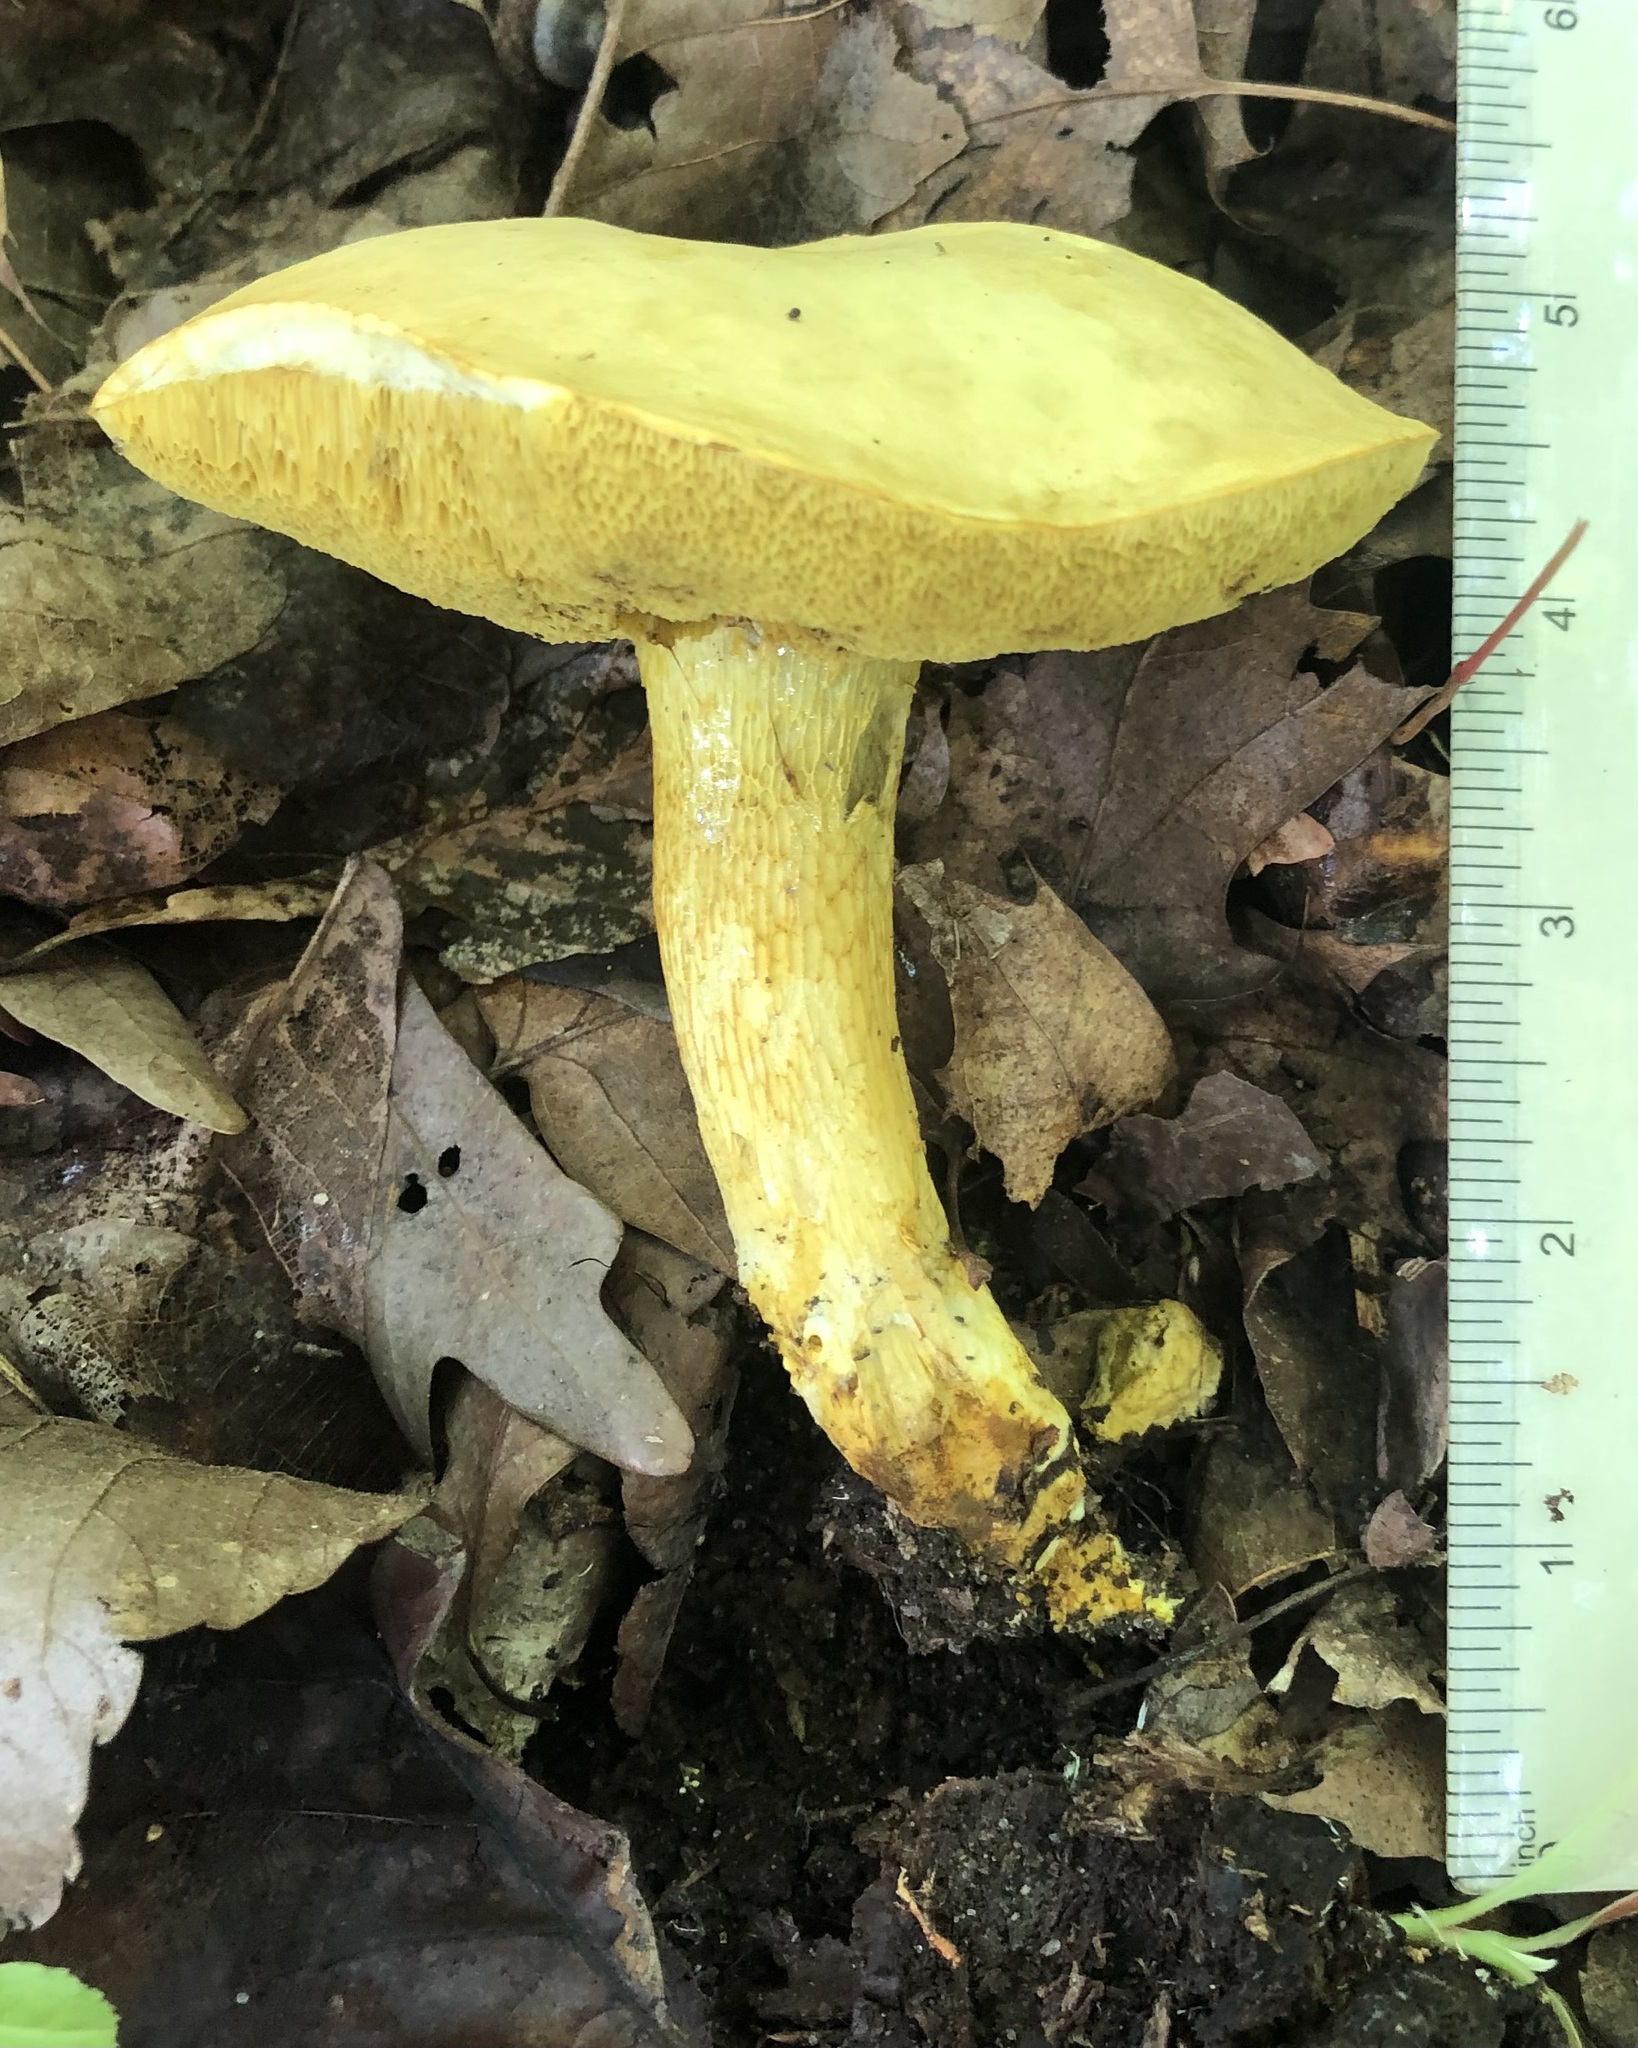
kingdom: Fungi
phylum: Basidiomycota
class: Agaricomycetes
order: Boletales
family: Boletaceae
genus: Retiboletus
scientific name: Retiboletus ornatipes
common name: Ornate-stalked bolete
